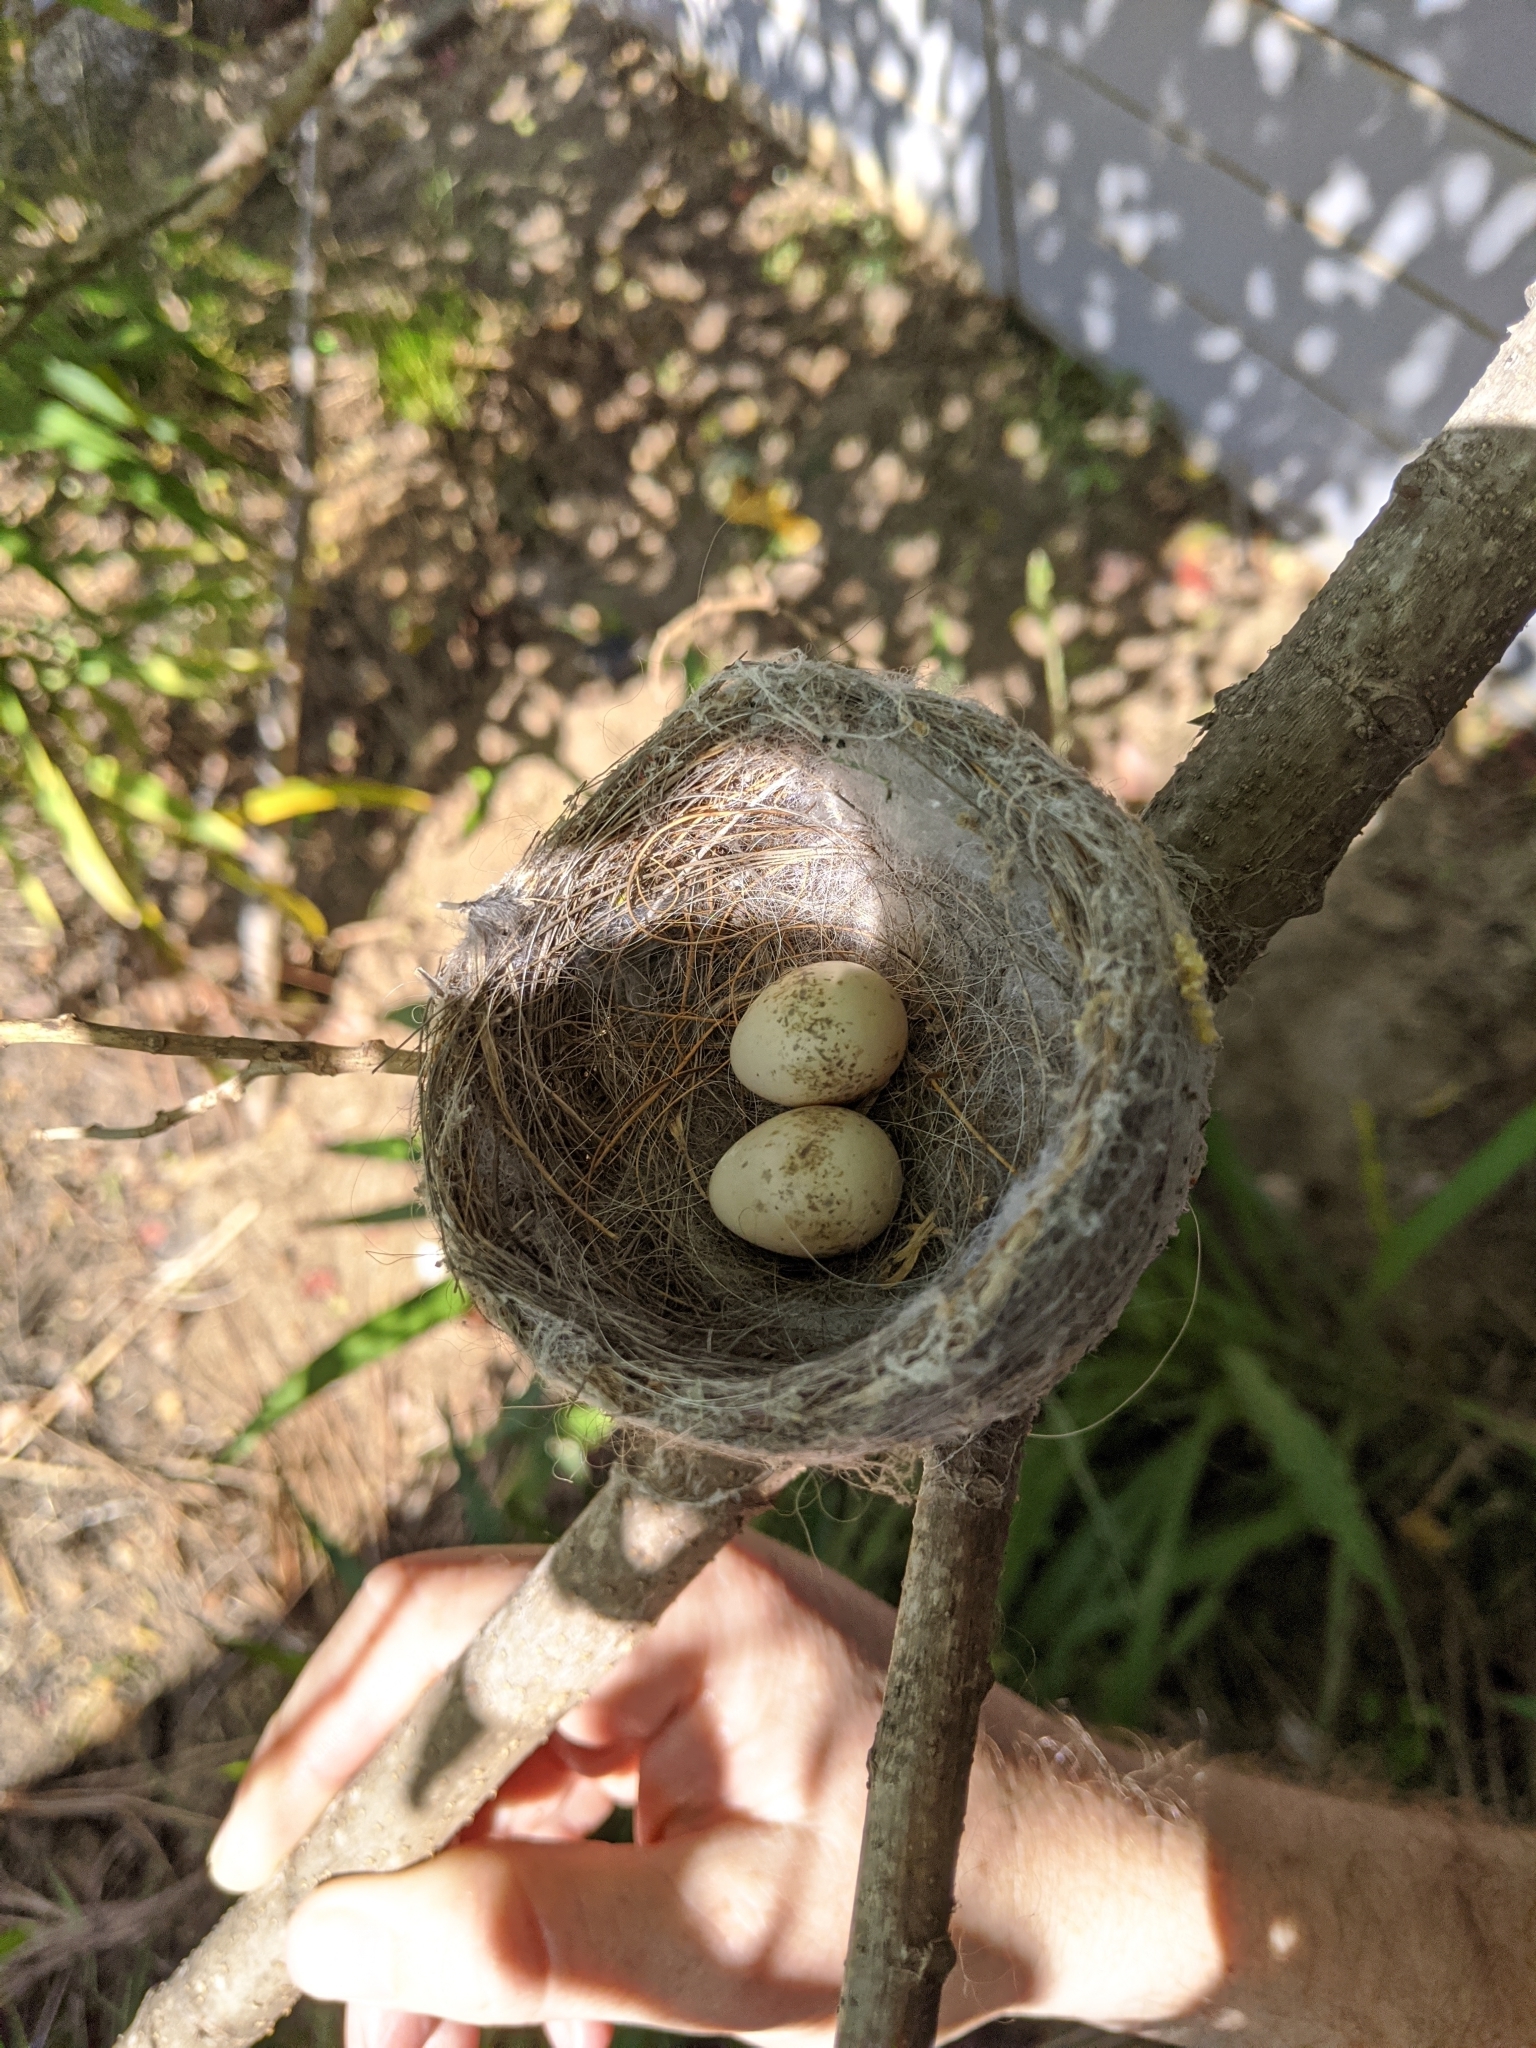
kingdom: Animalia
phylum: Chordata
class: Aves
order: Passeriformes
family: Rhipiduridae
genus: Rhipidura
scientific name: Rhipidura leucophrys
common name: Willie wagtail
